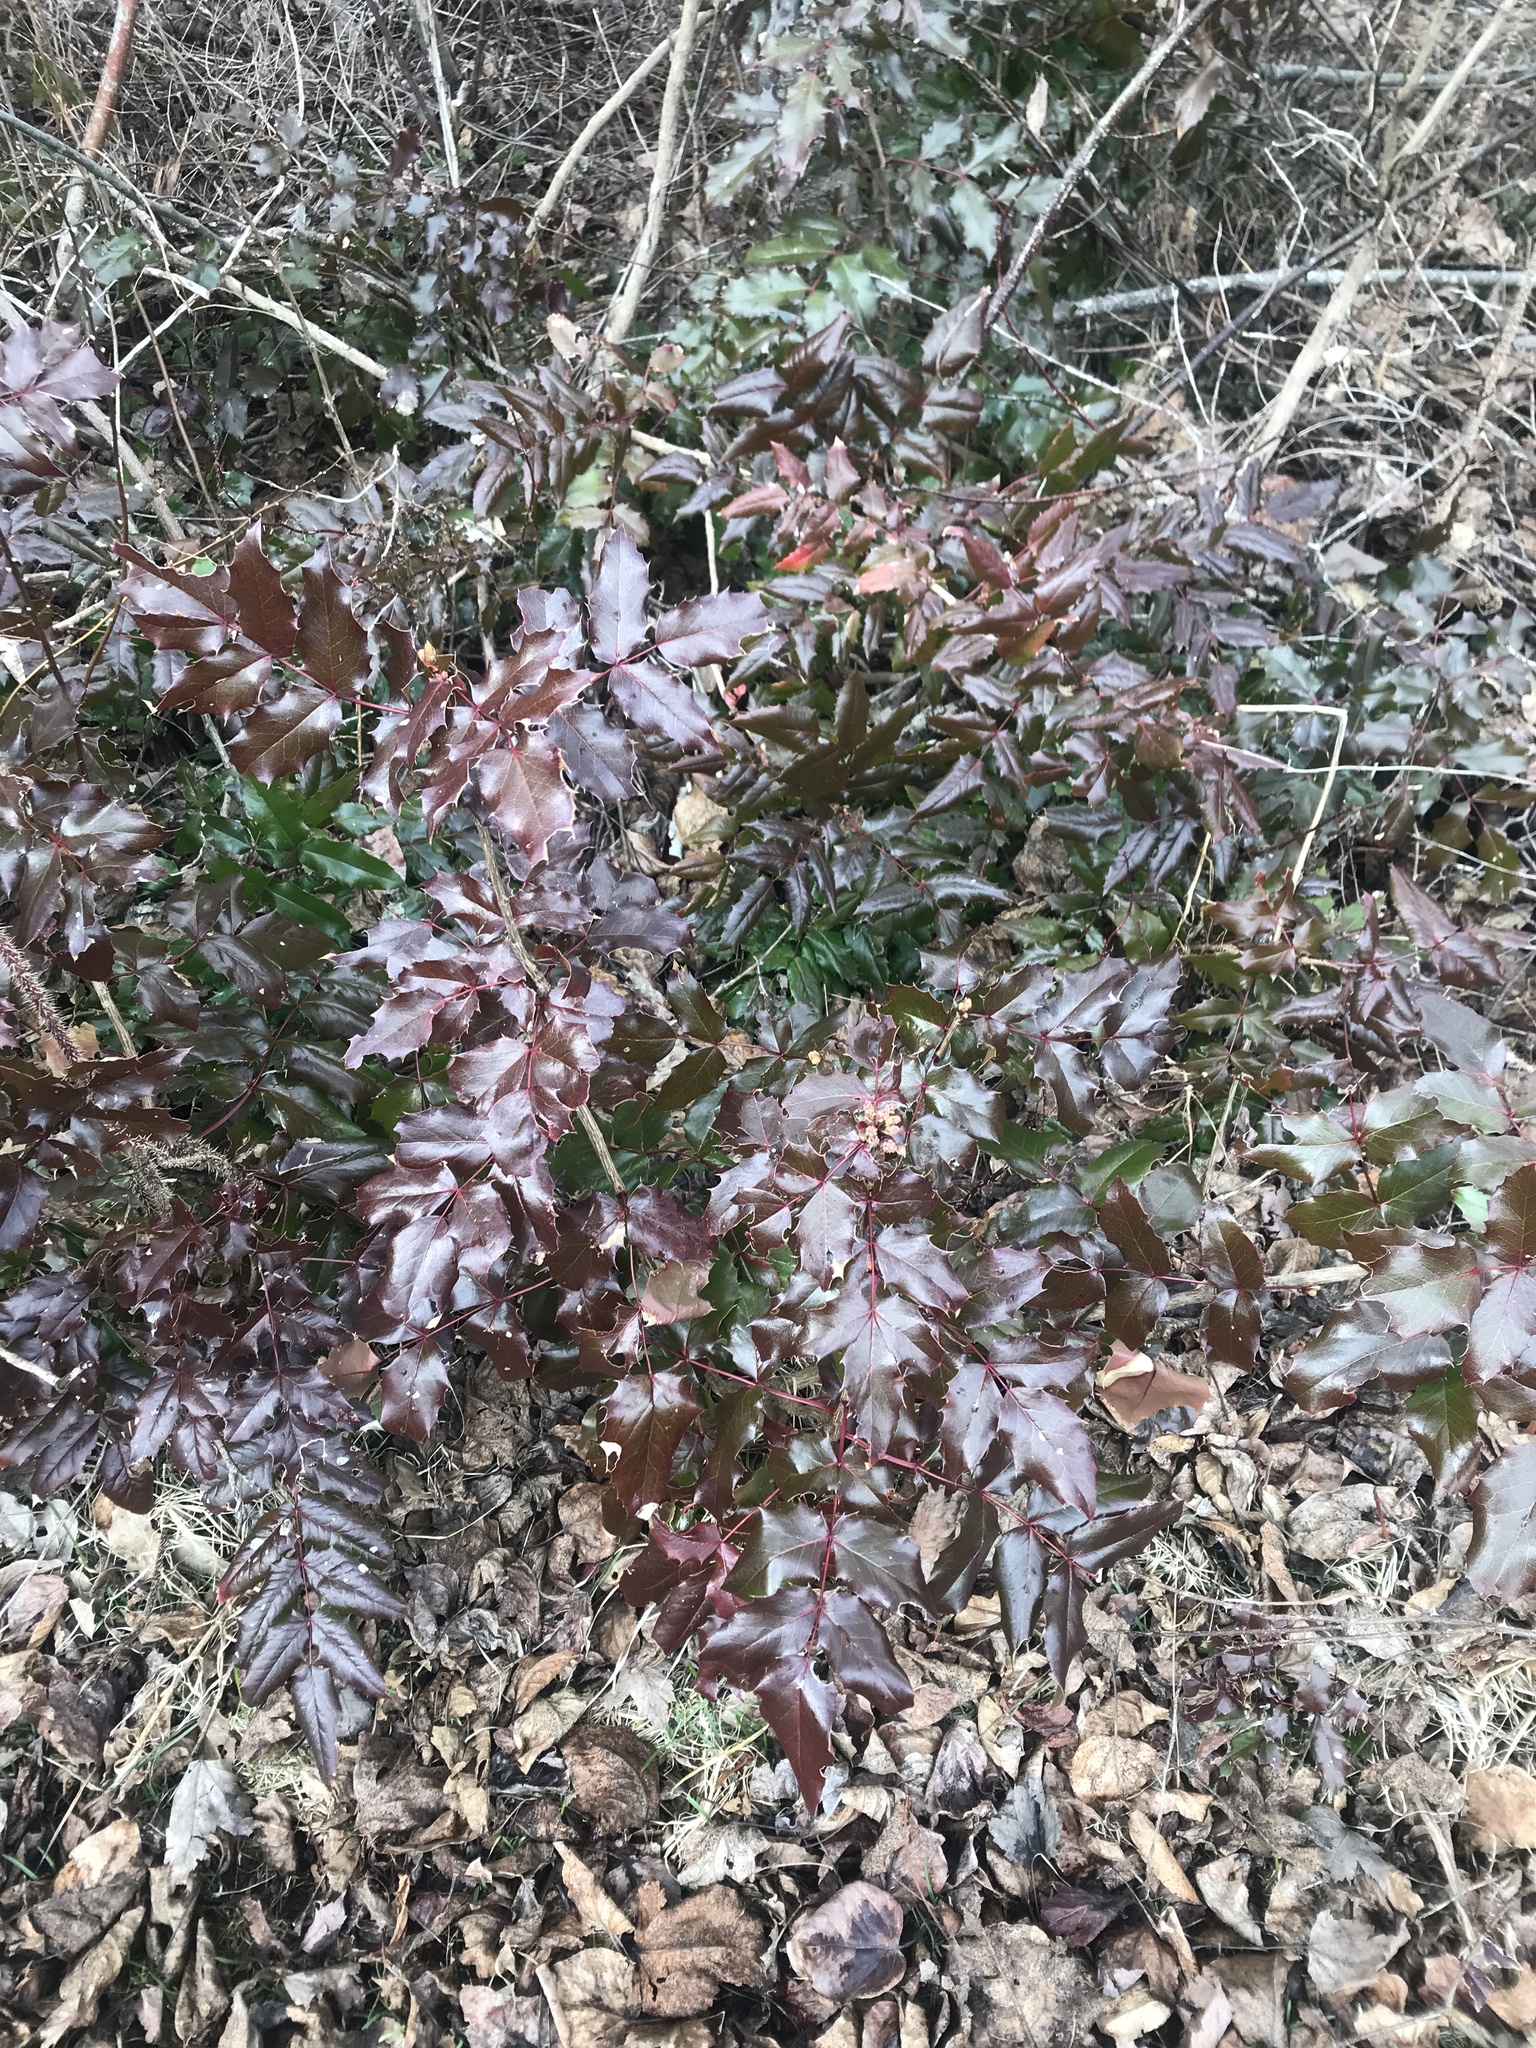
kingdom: Plantae
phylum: Tracheophyta
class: Magnoliopsida
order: Ranunculales
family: Berberidaceae
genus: Mahonia
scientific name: Mahonia aquifolium
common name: Oregon-grape
